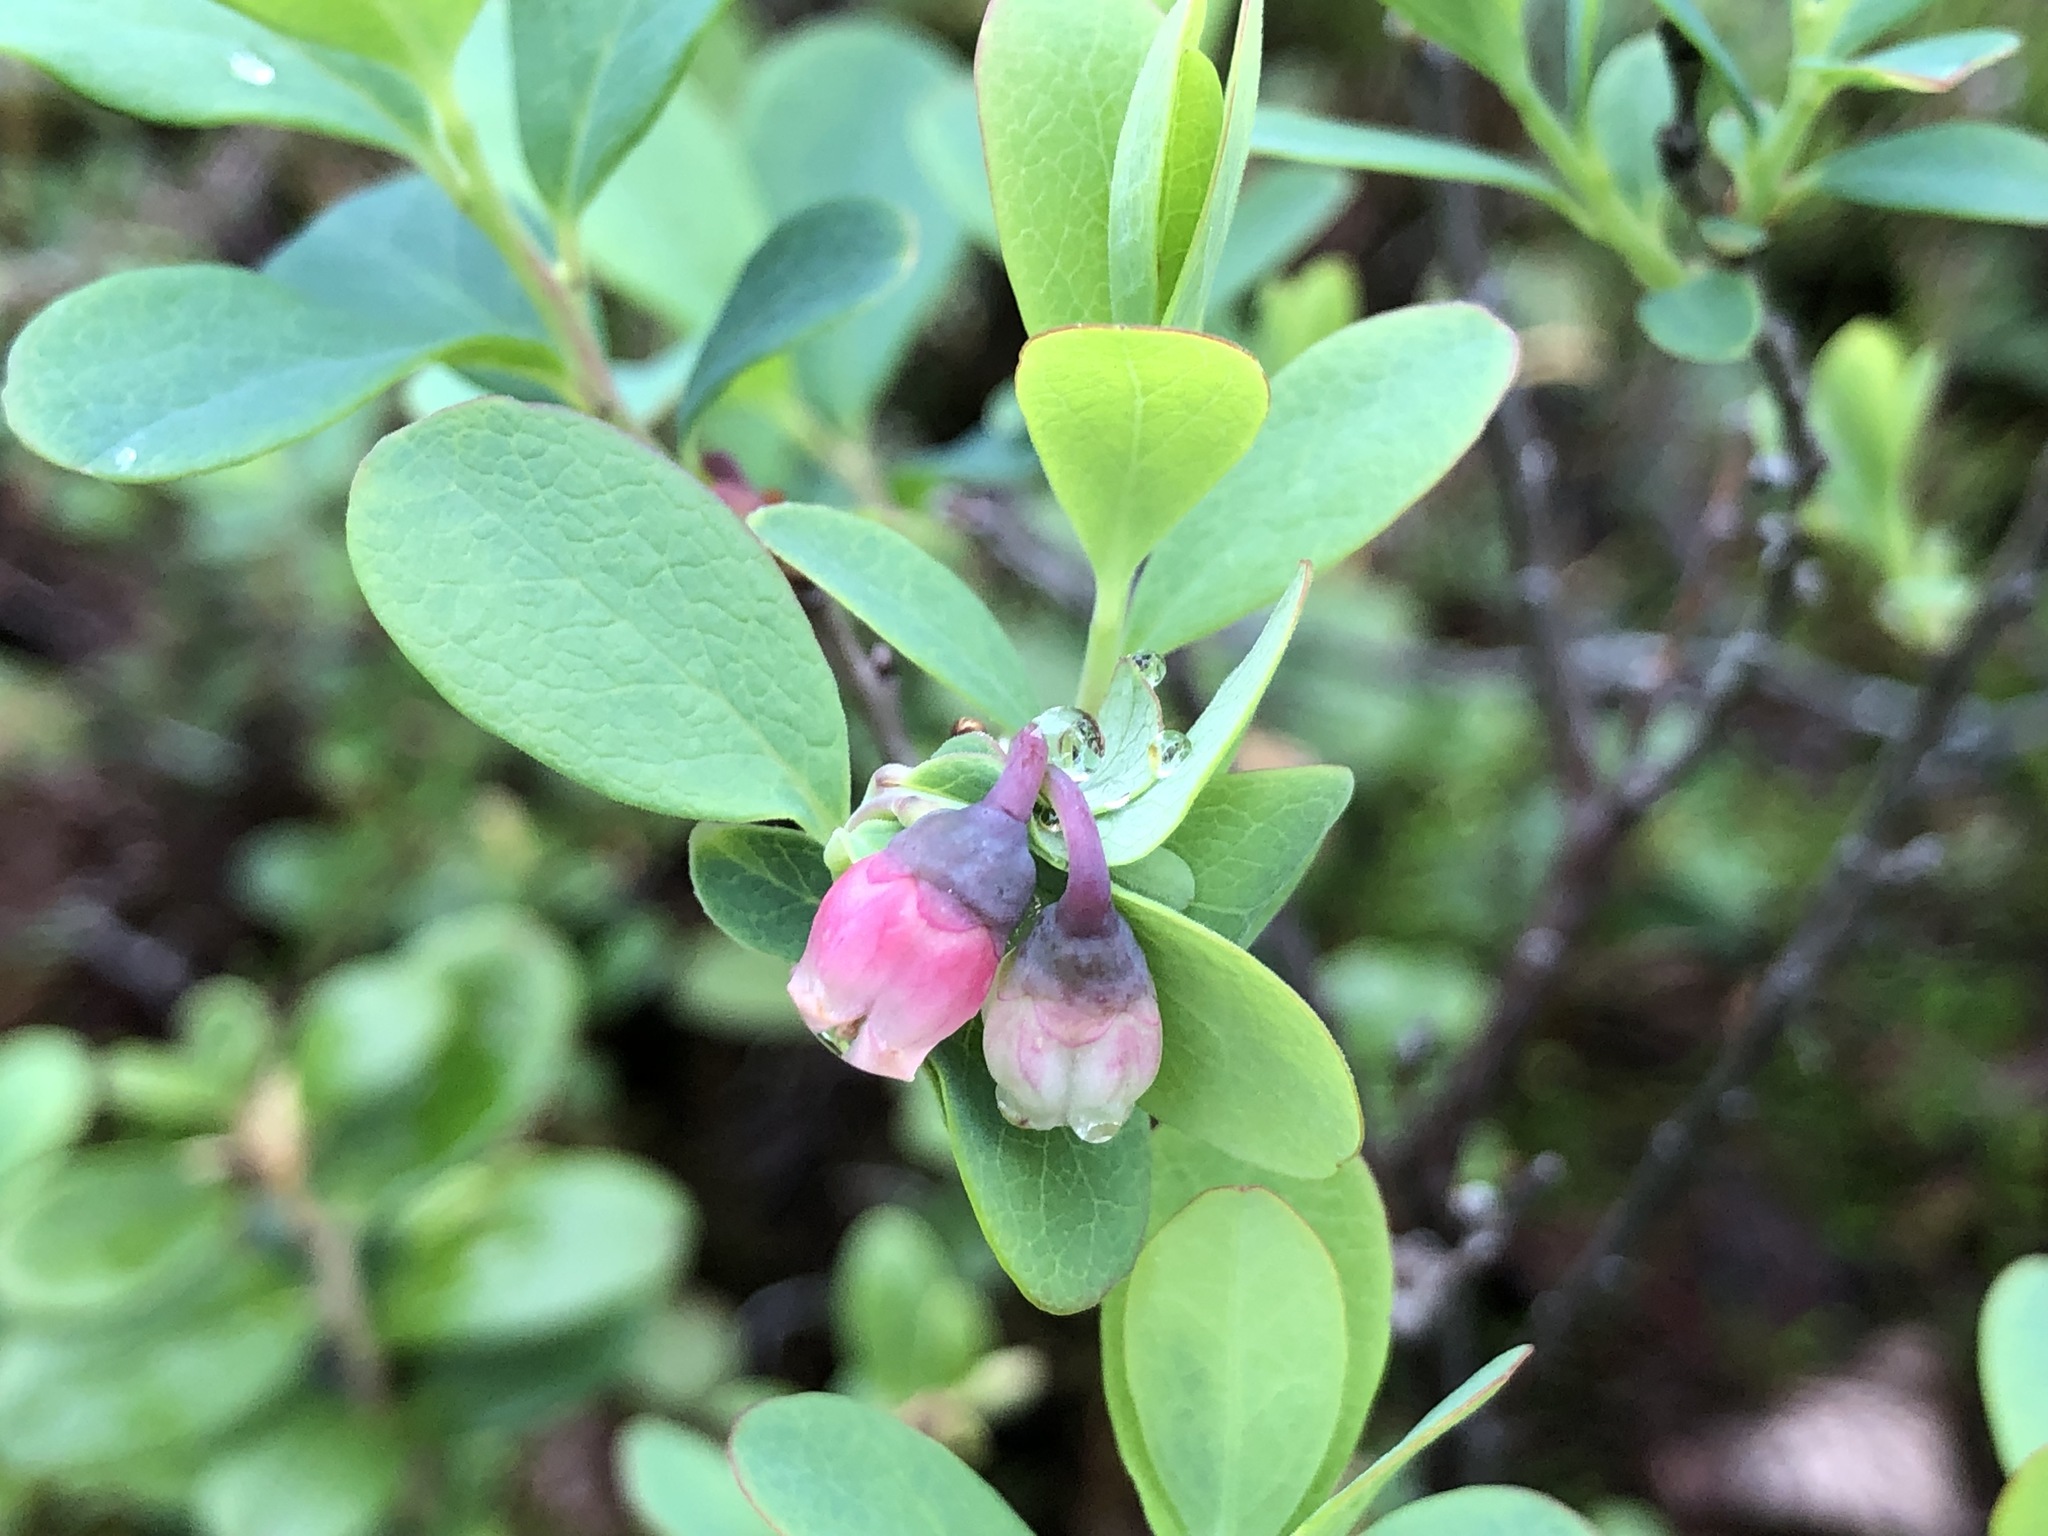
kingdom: Plantae
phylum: Tracheophyta
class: Magnoliopsida
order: Ericales
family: Ericaceae
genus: Vaccinium
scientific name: Vaccinium uliginosum
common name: Bog bilberry
